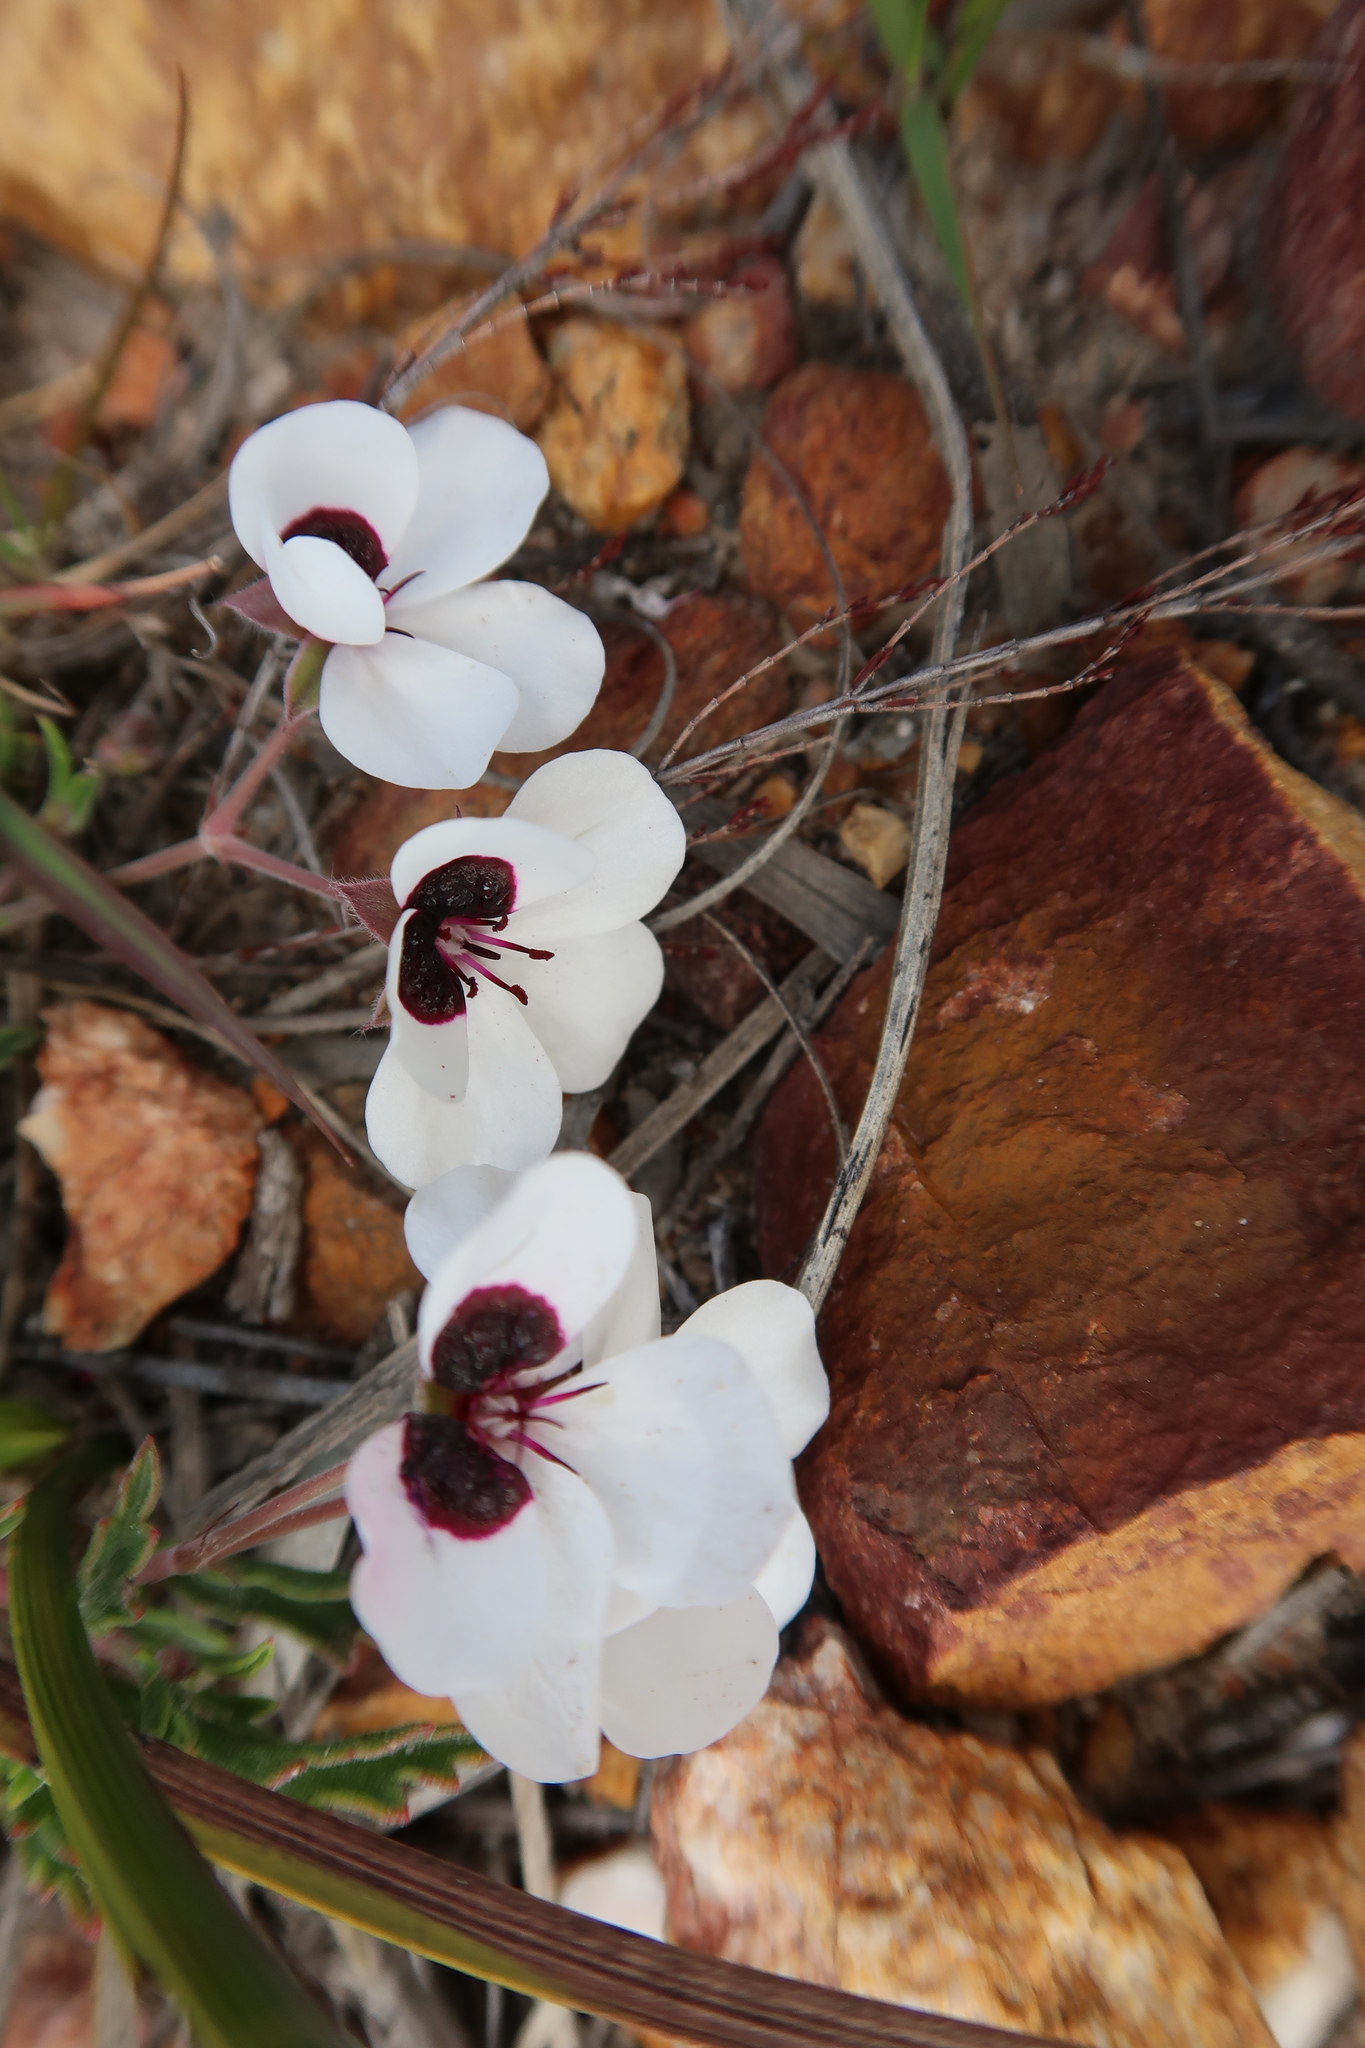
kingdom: Plantae
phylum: Tracheophyta
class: Magnoliopsida
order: Geraniales
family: Geraniaceae
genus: Pelargonium
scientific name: Pelargonium tricolor
